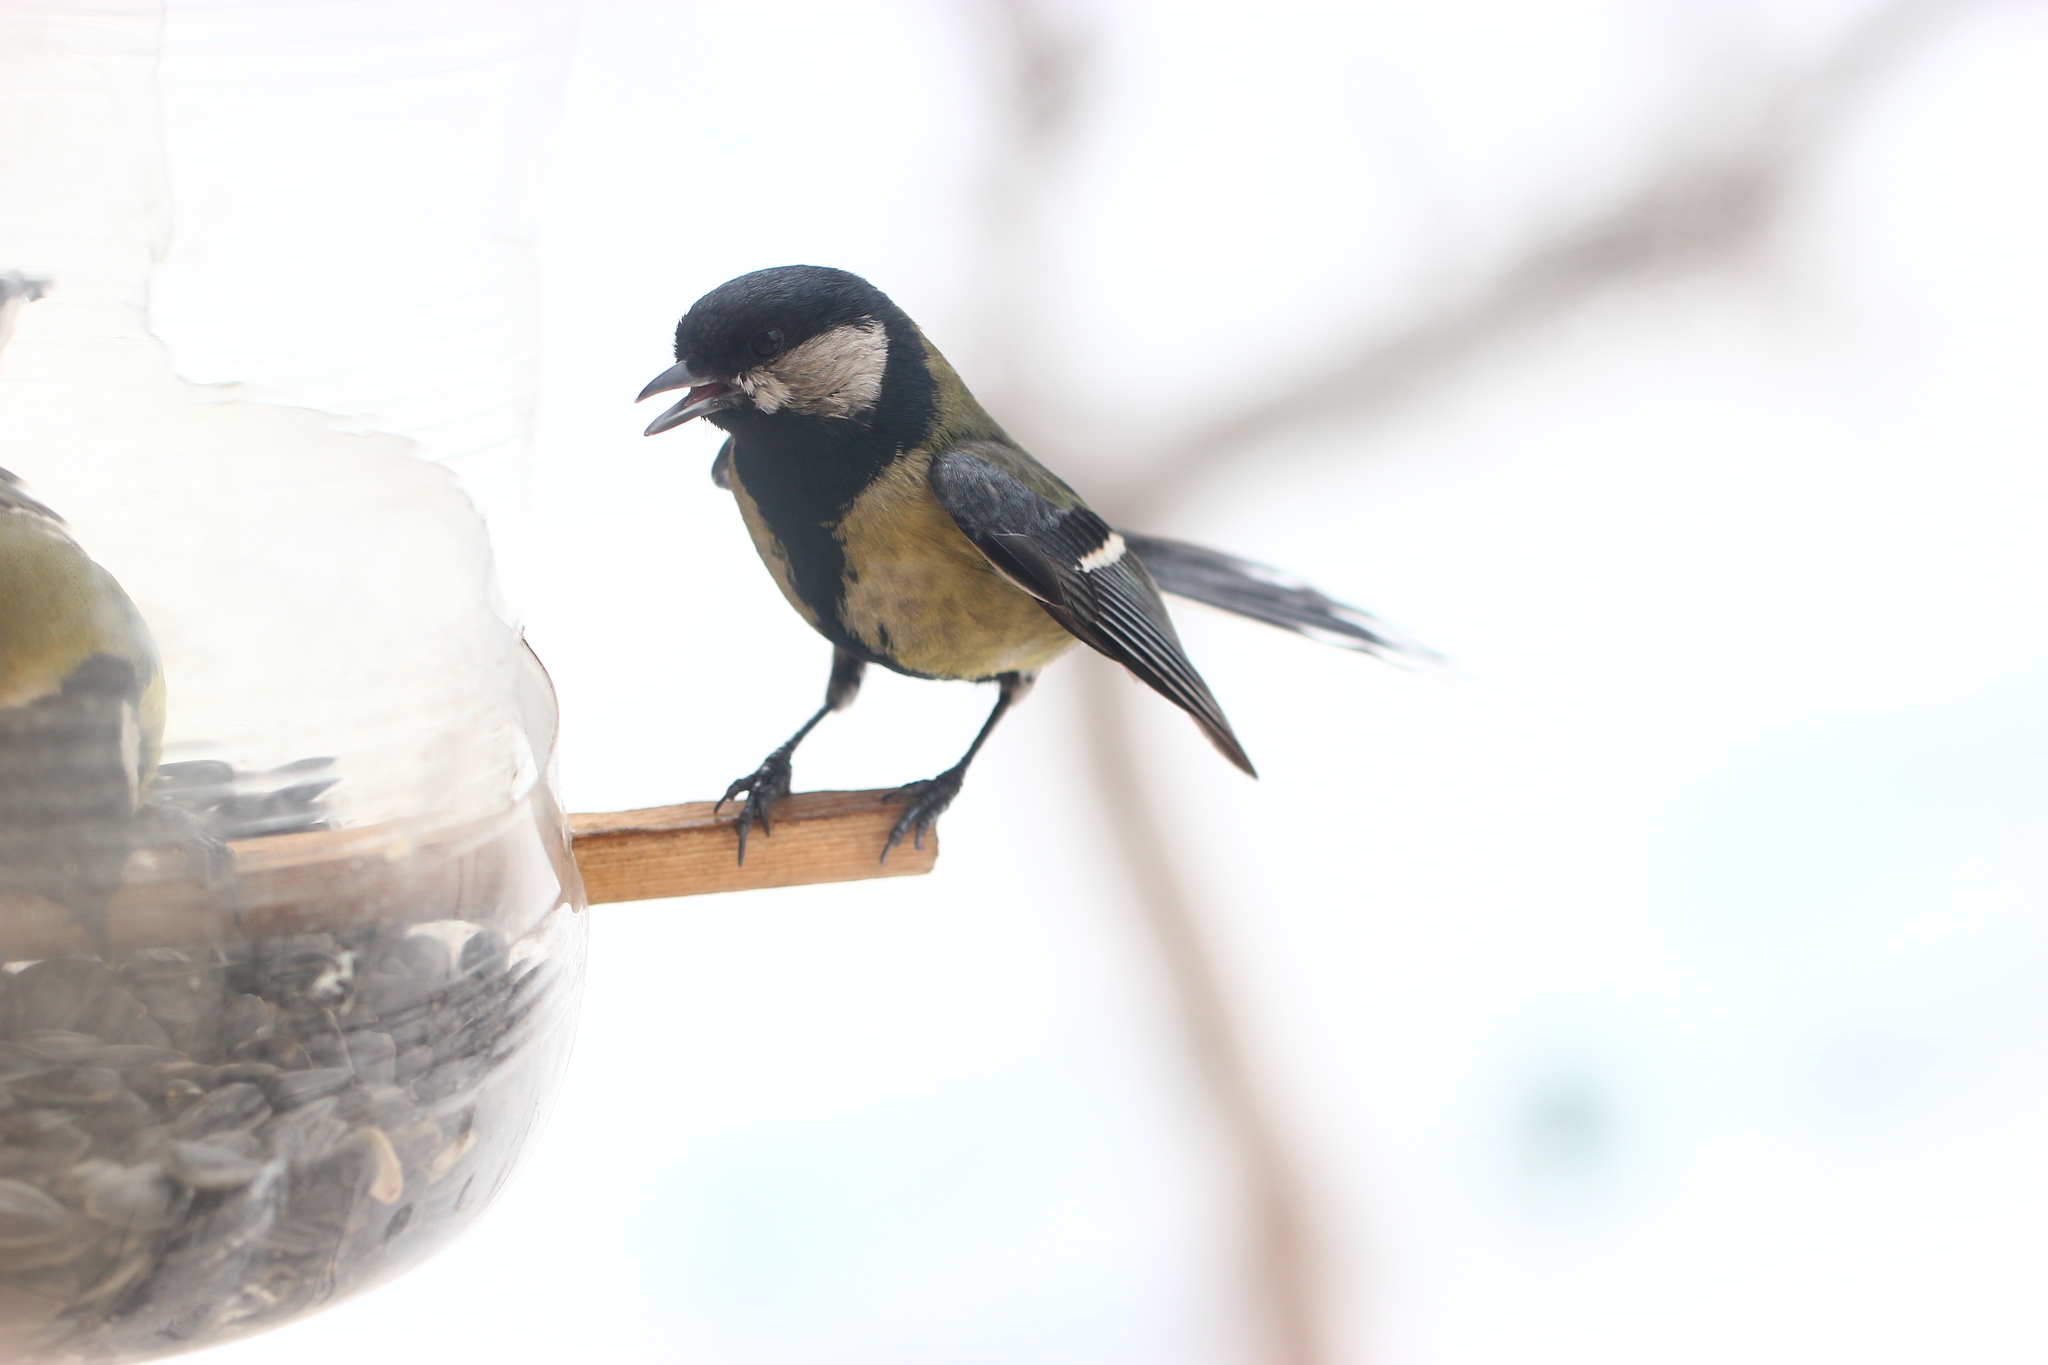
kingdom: Animalia
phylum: Chordata
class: Aves
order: Passeriformes
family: Paridae
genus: Parus
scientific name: Parus major
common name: Great tit
